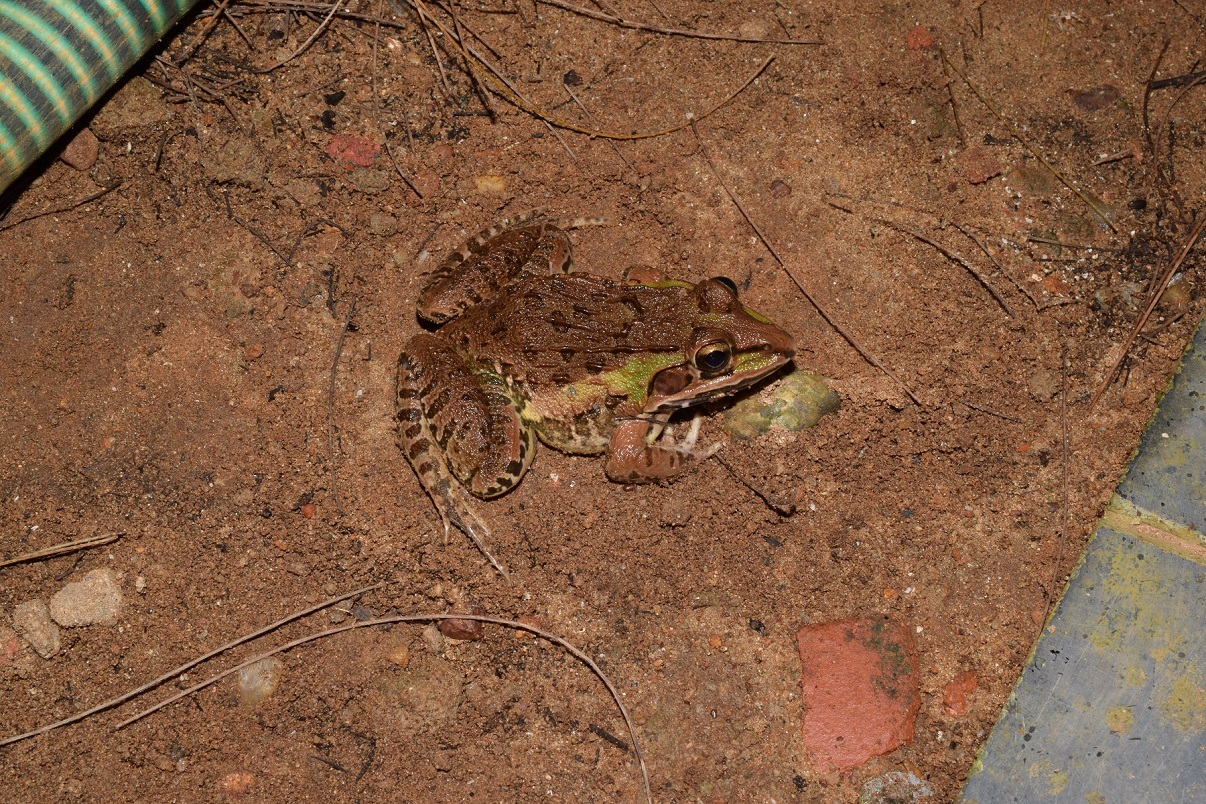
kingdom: Animalia
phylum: Chordata
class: Amphibia
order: Anura
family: Dicroglossidae
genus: Hoplobatrachus
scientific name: Hoplobatrachus tigerinus
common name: Indian bullfrog
